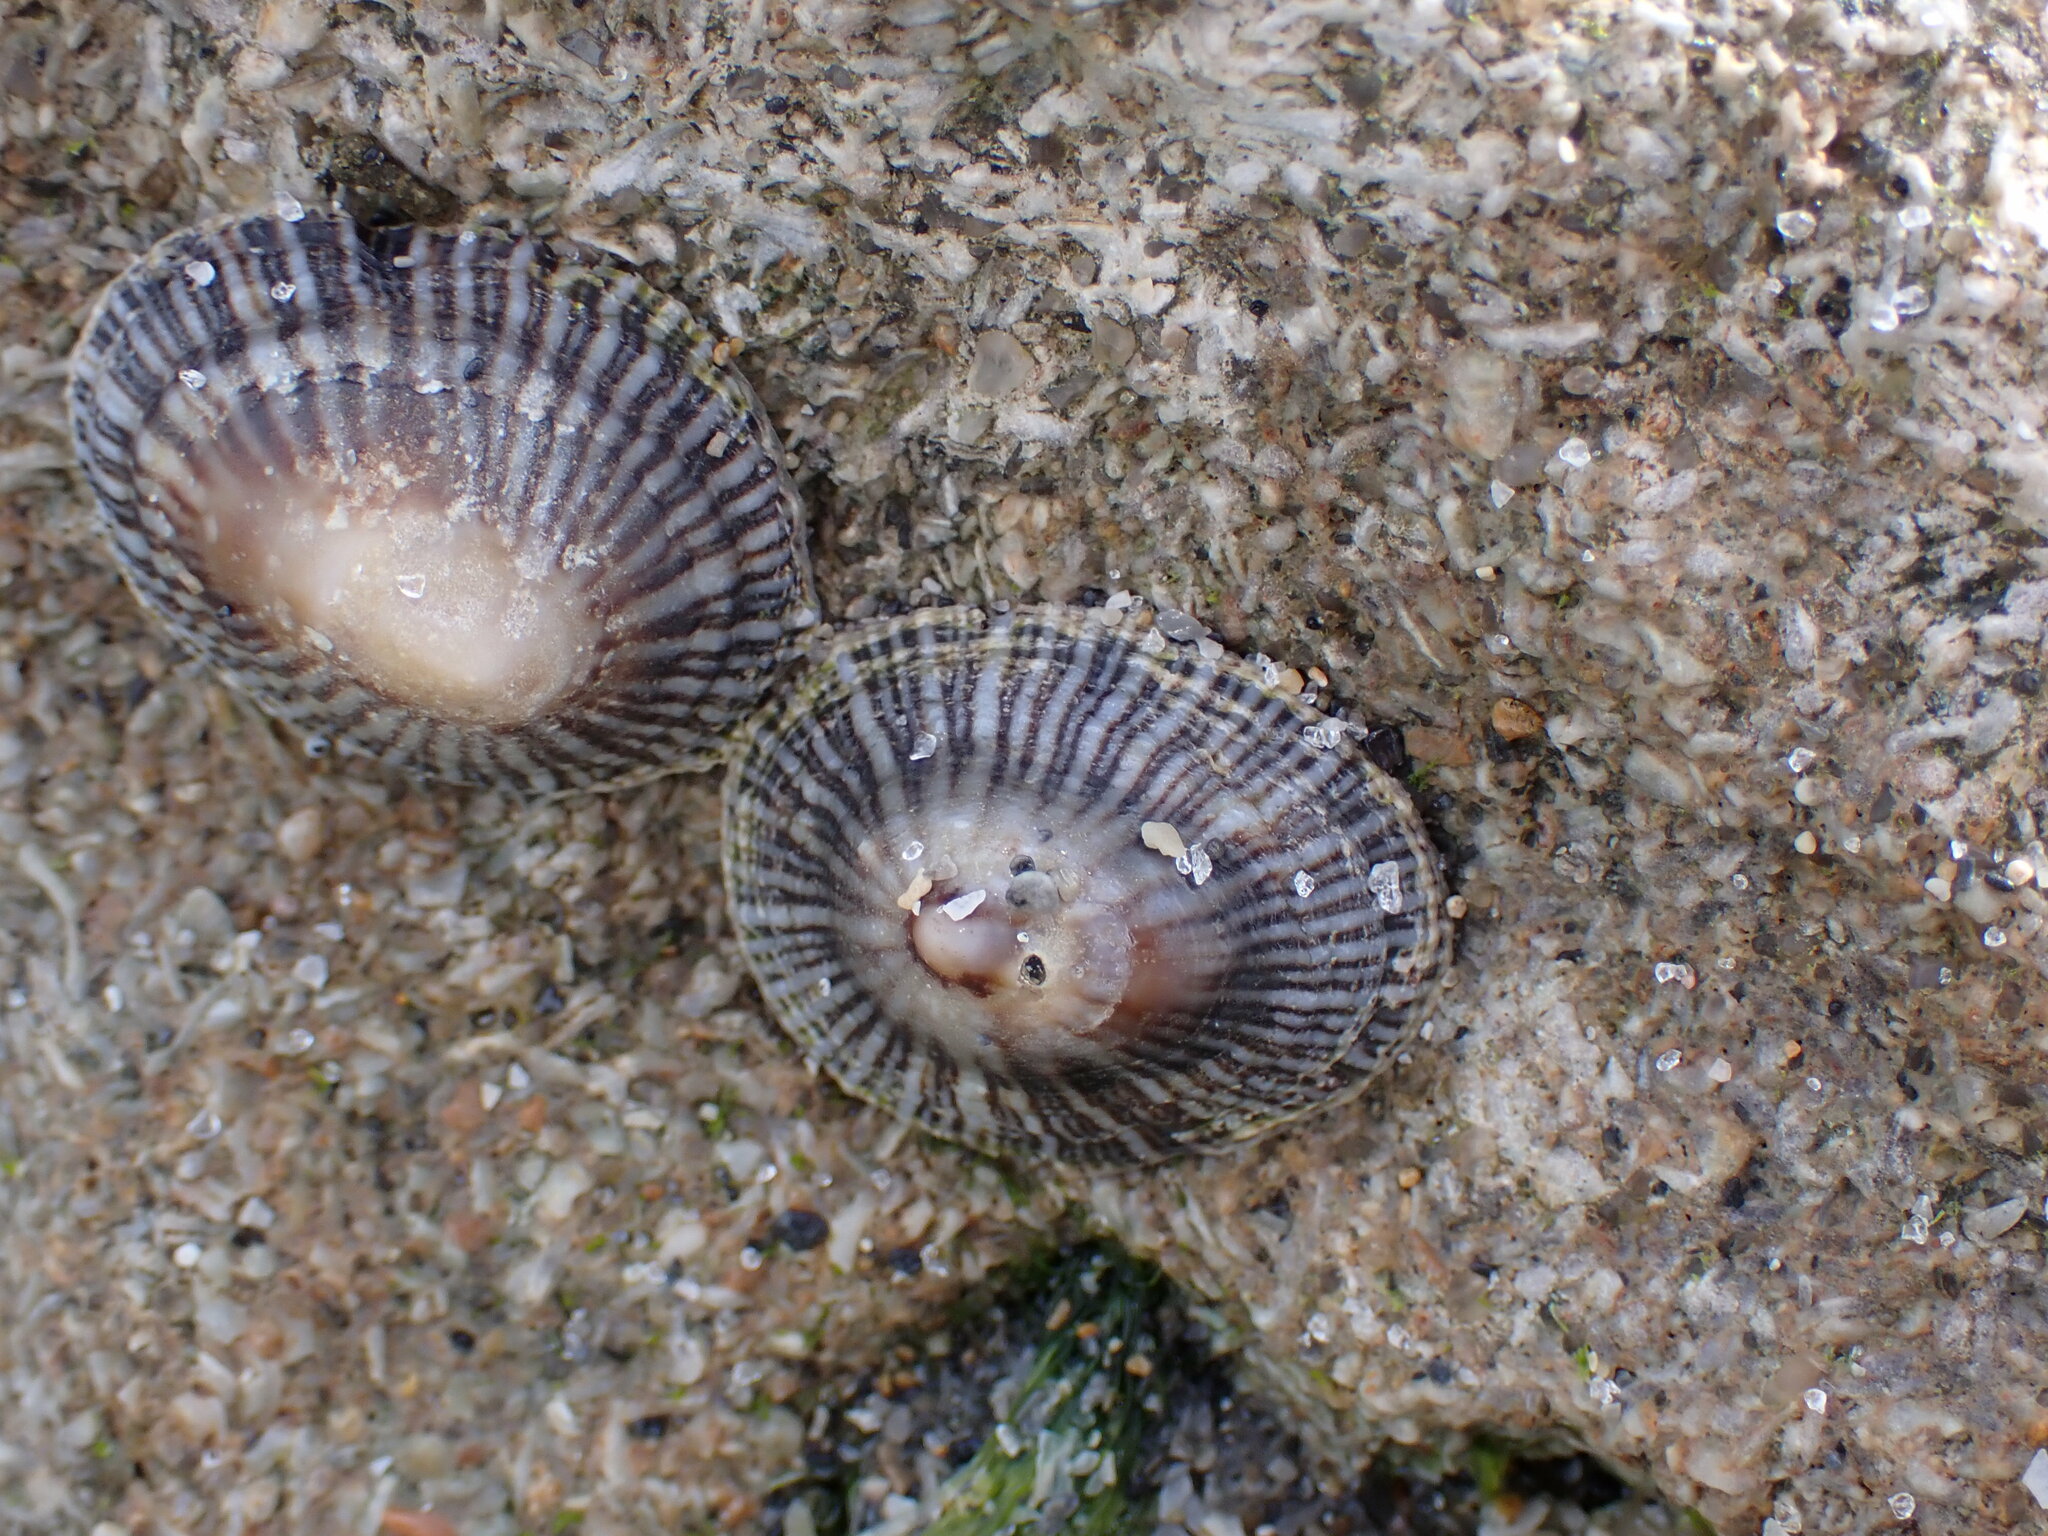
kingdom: Animalia
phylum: Mollusca
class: Gastropoda
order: Siphonariida
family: Siphonariidae
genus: Siphonaria
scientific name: Siphonaria naufragum
